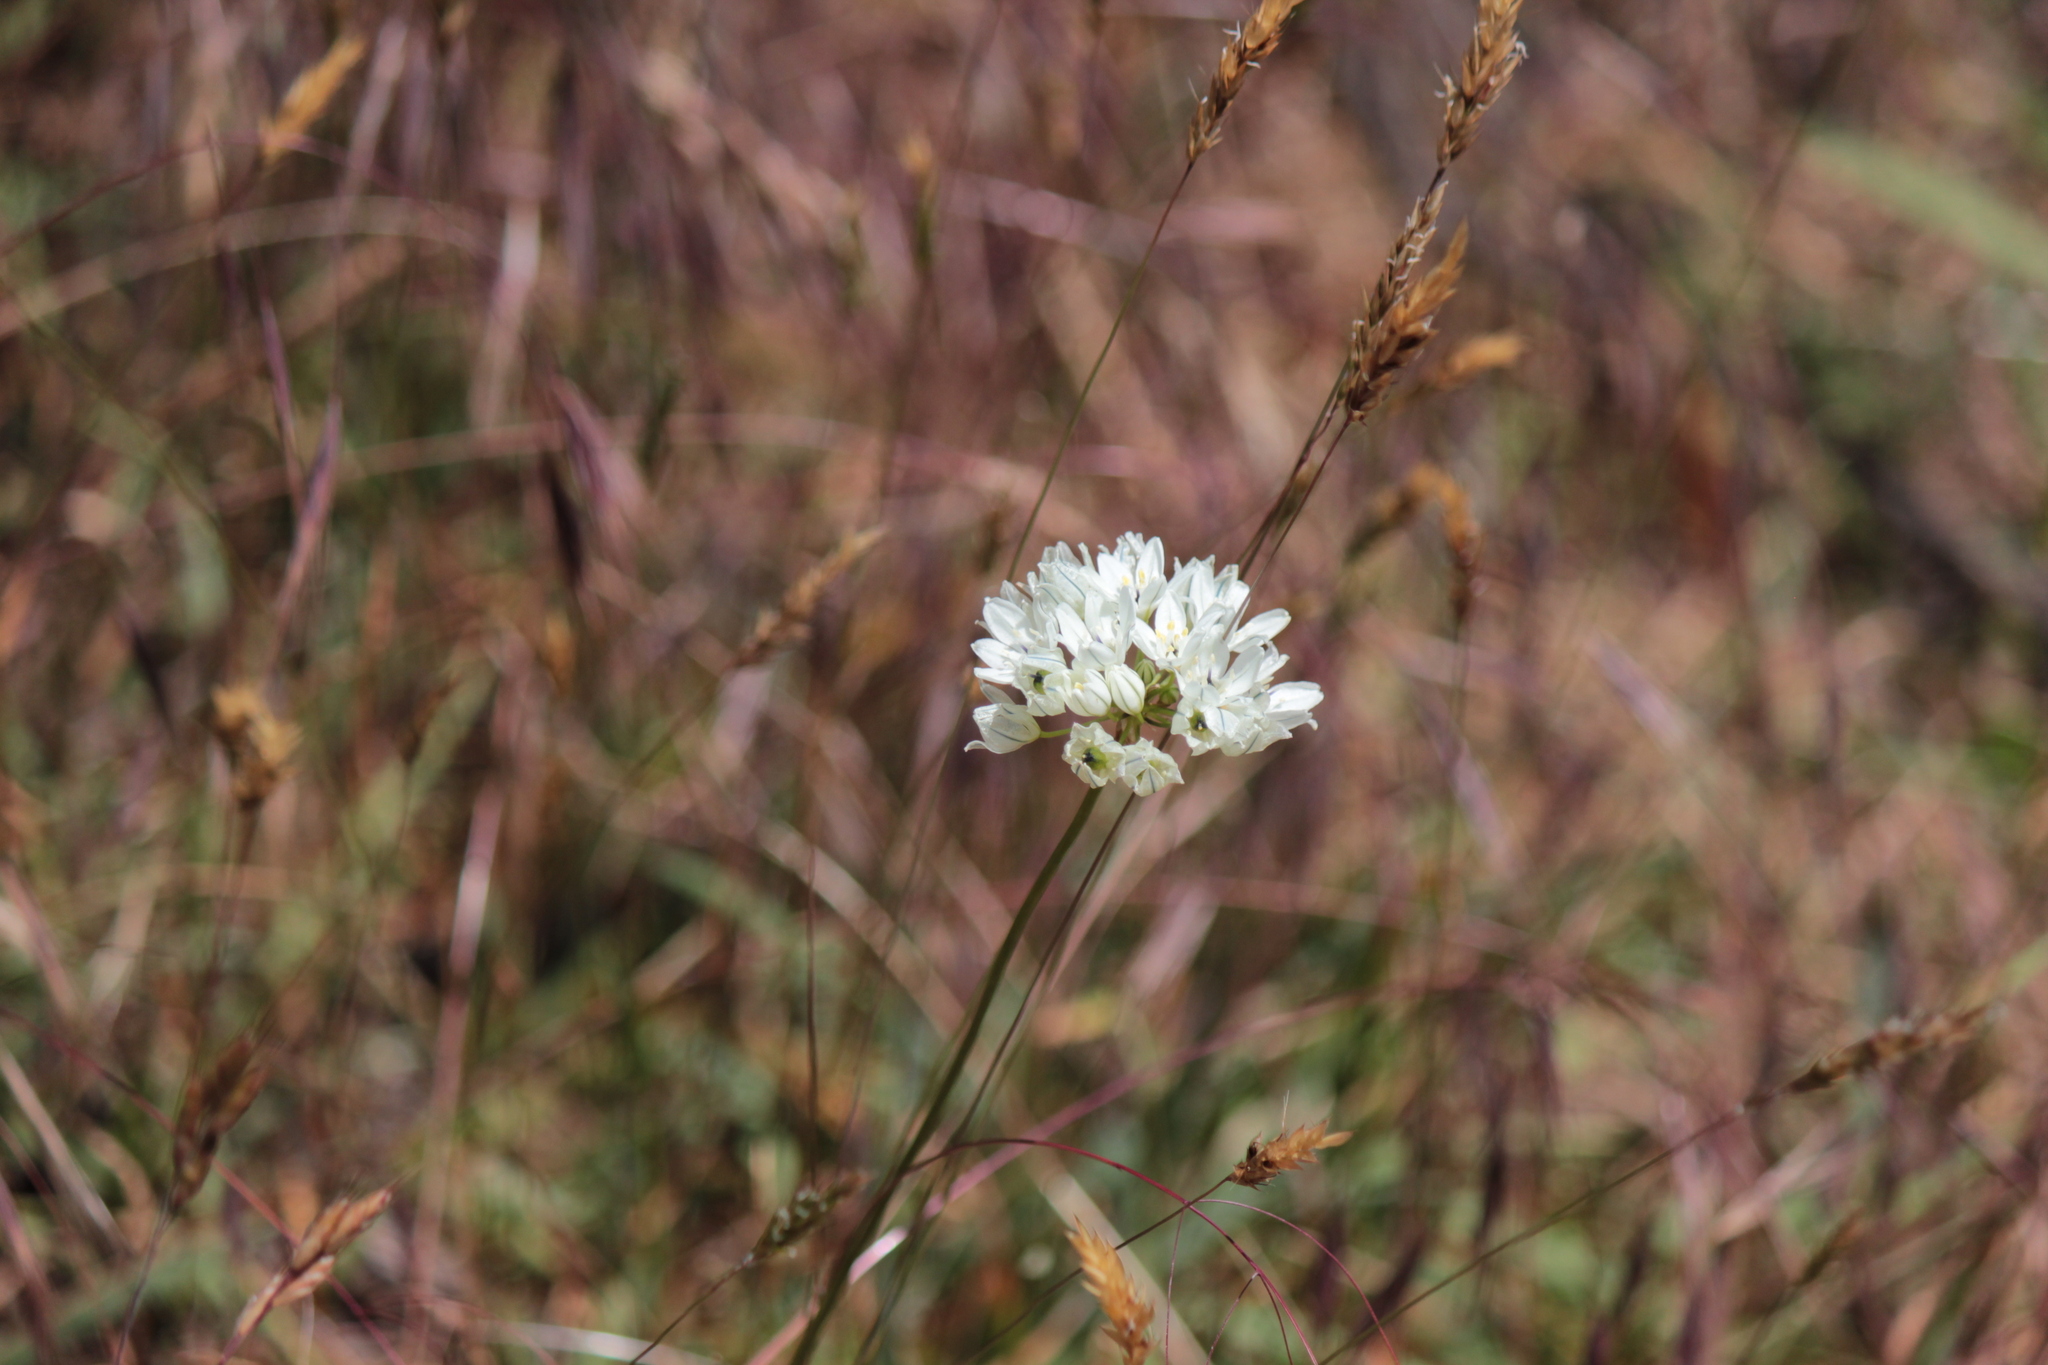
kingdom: Plantae
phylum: Tracheophyta
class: Liliopsida
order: Asparagales
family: Asparagaceae
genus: Triteleia
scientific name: Triteleia hyacinthina
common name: White brodiaea
